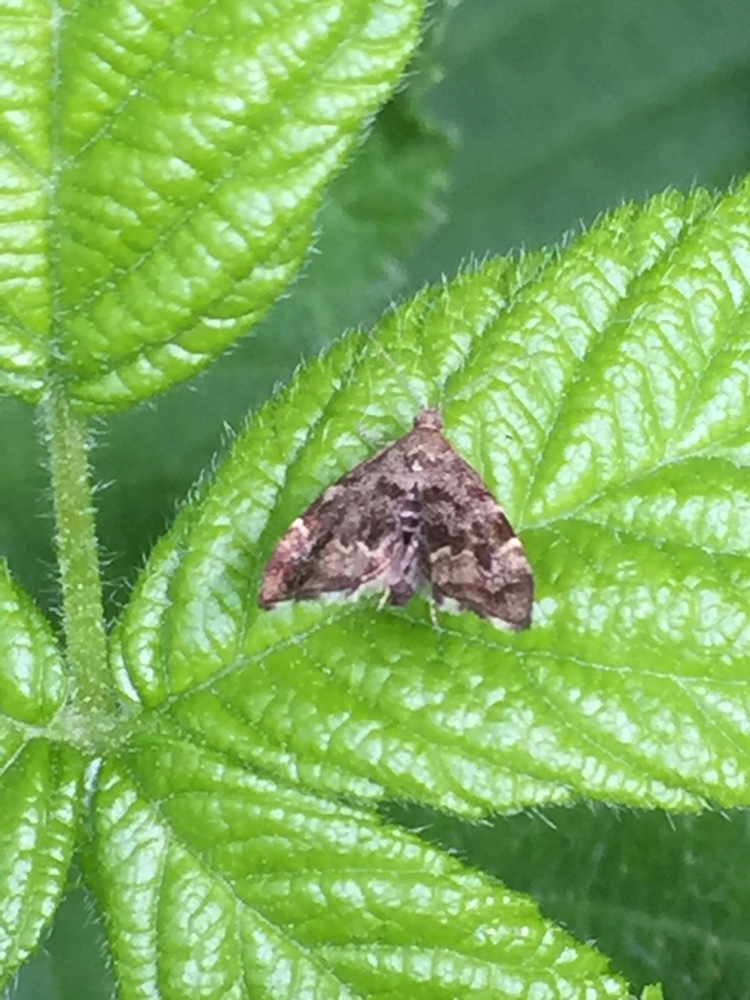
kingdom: Animalia
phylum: Arthropoda
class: Insecta
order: Lepidoptera
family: Choreutidae
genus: Anthophila
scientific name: Anthophila fabriciana
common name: Nettle-tap
